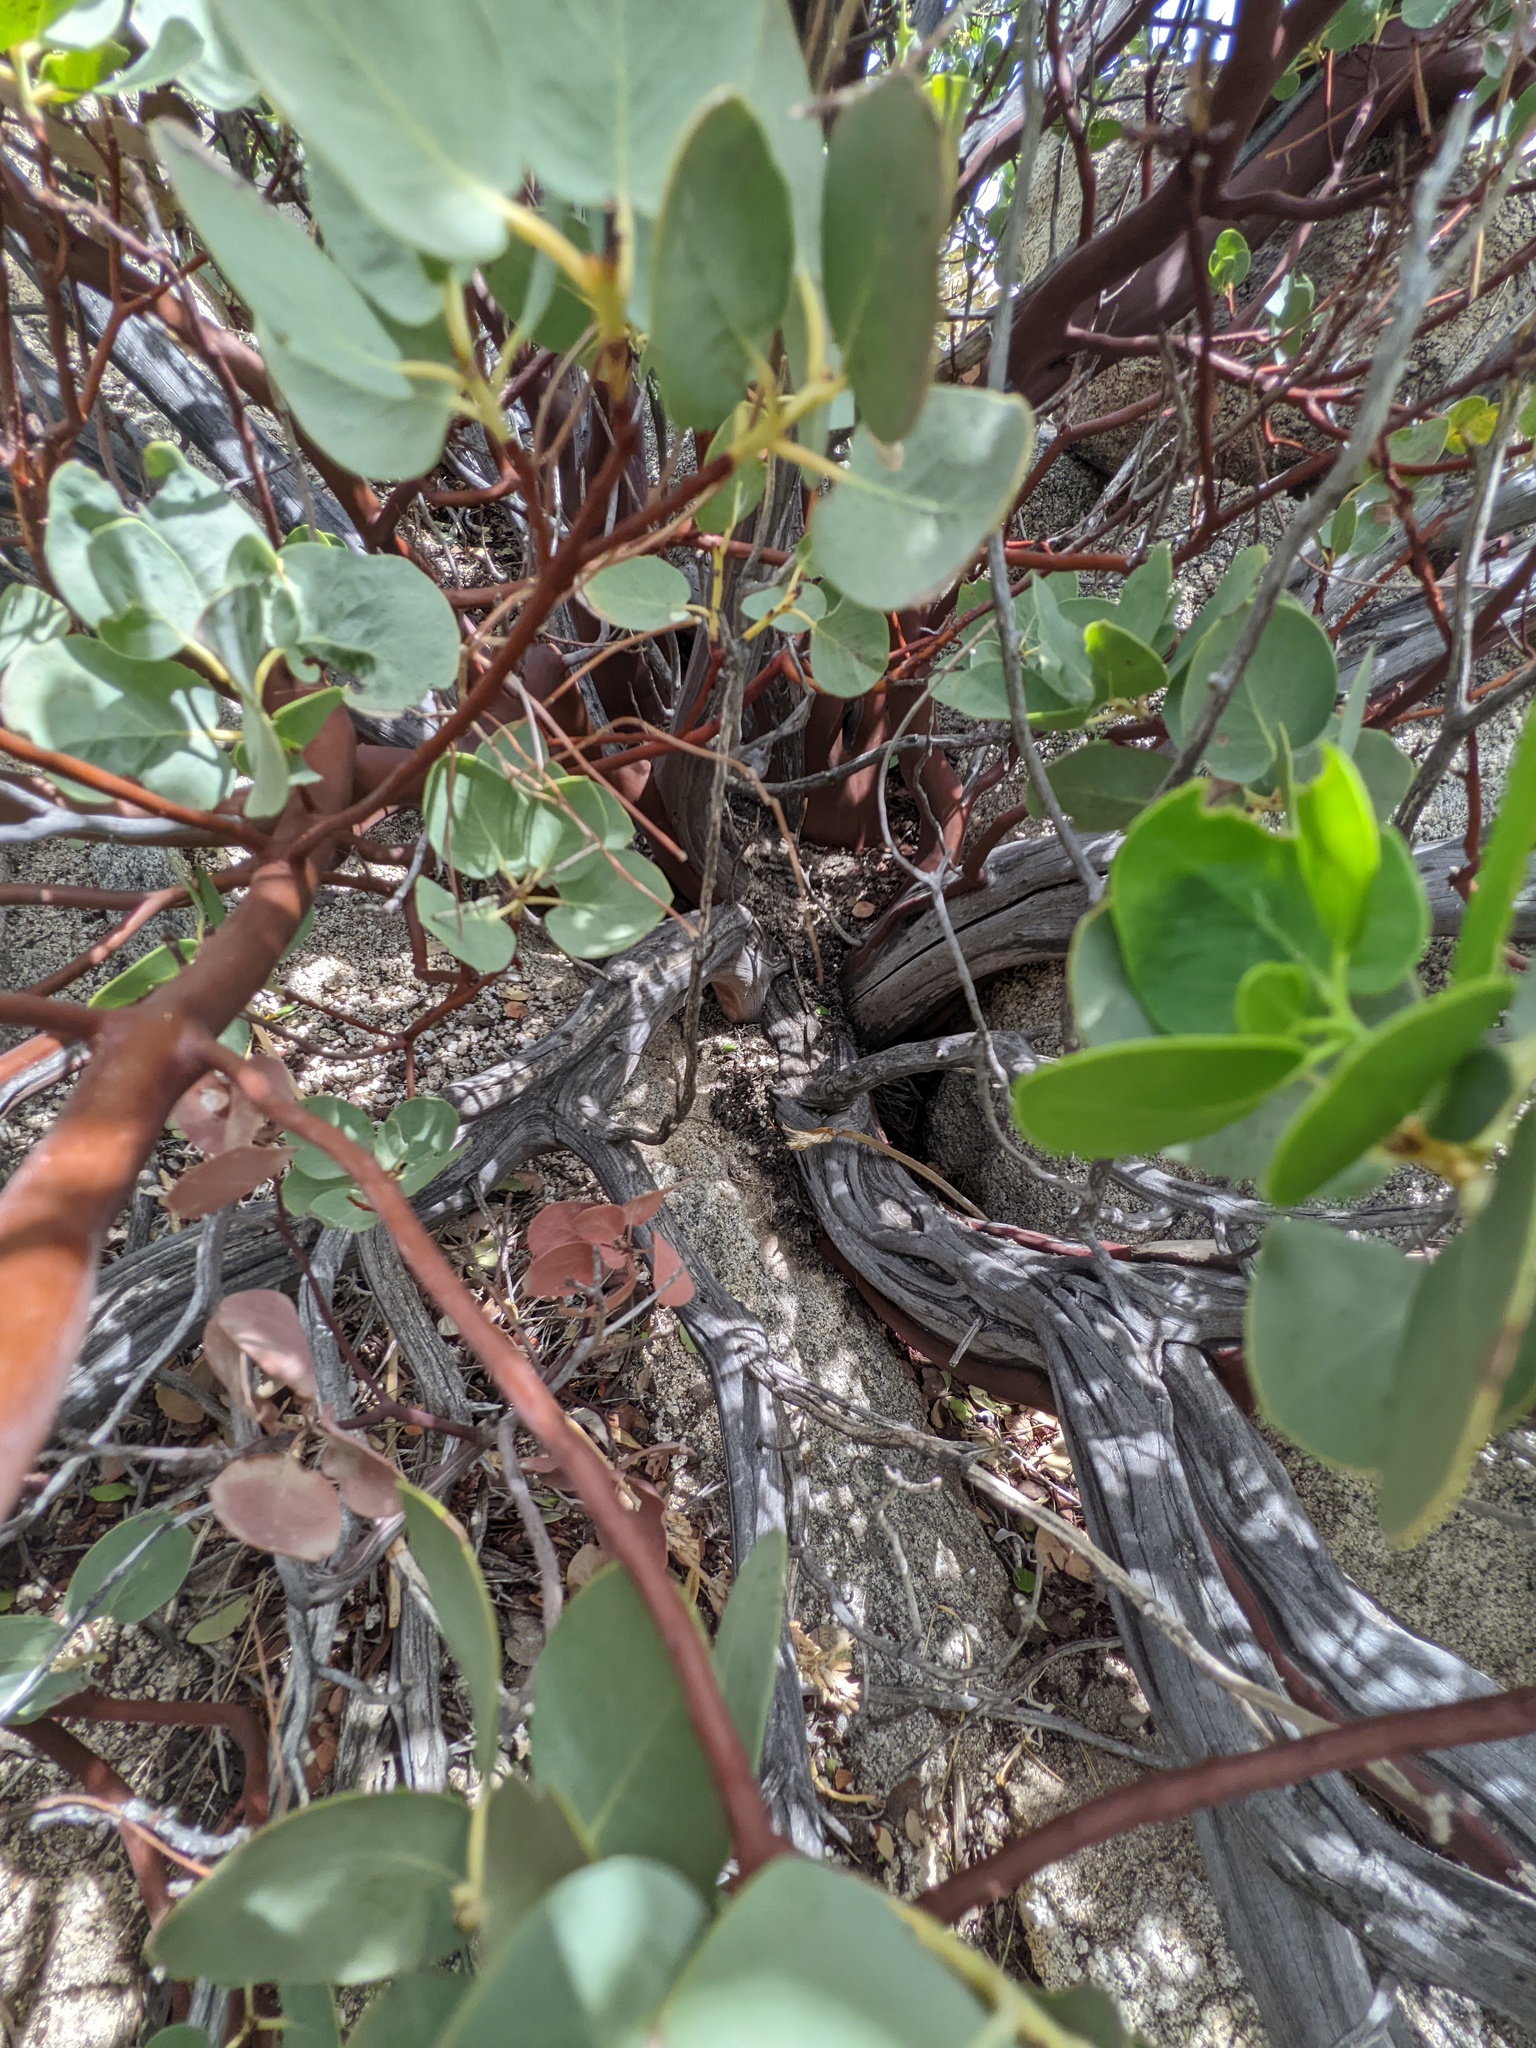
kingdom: Plantae
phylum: Tracheophyta
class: Magnoliopsida
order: Ericales
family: Ericaceae
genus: Arctostaphylos
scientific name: Arctostaphylos glauca
